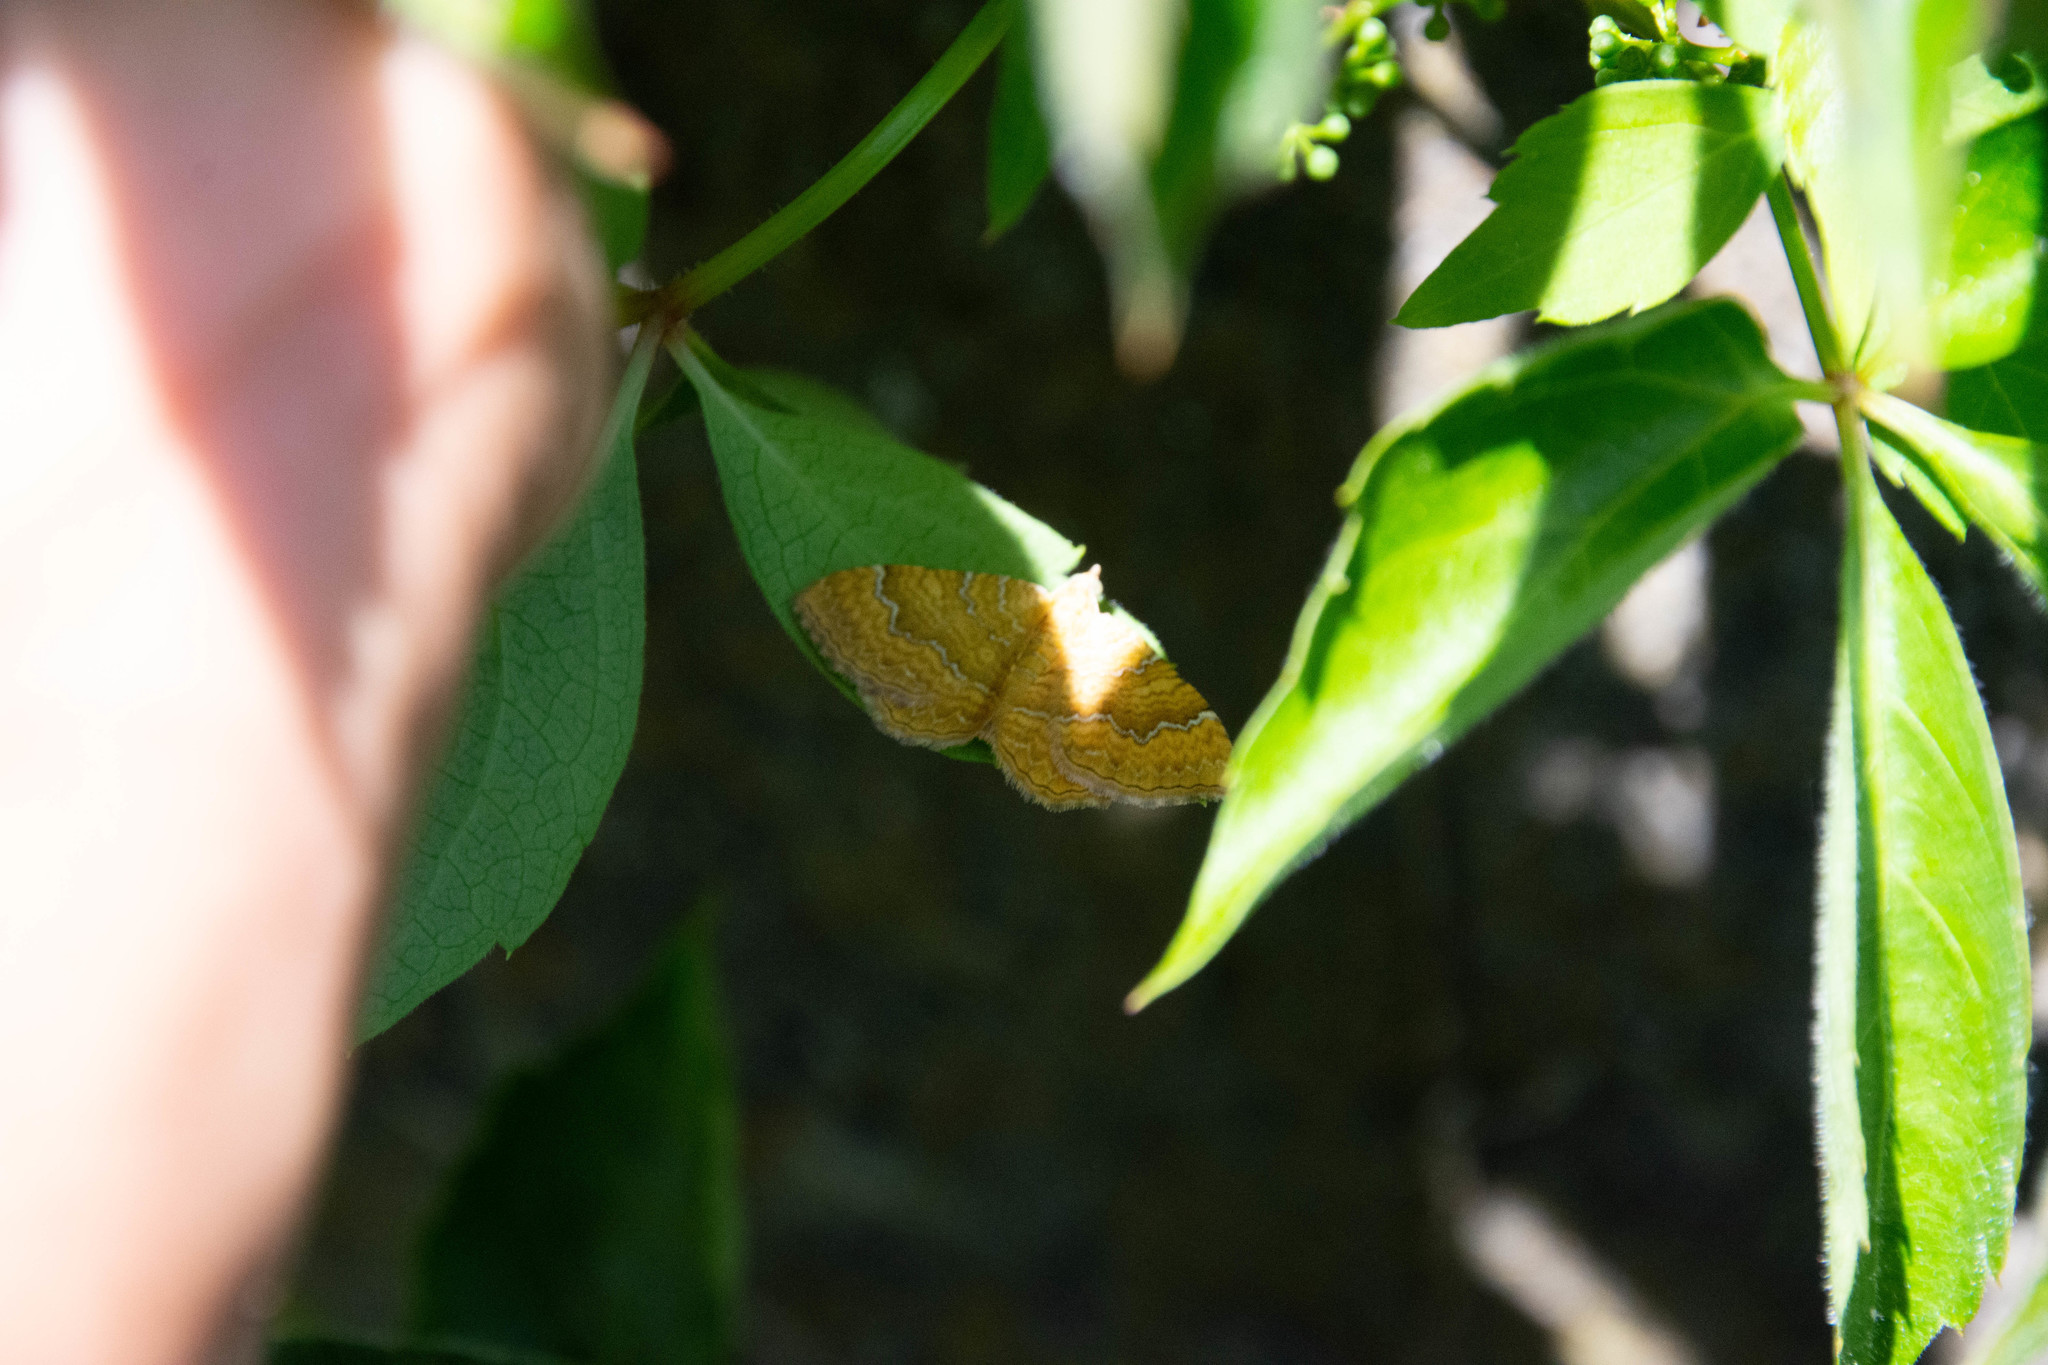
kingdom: Animalia
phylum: Arthropoda
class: Insecta
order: Lepidoptera
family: Geometridae
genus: Camptogramma
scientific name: Camptogramma bilineata
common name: Yellow shell
